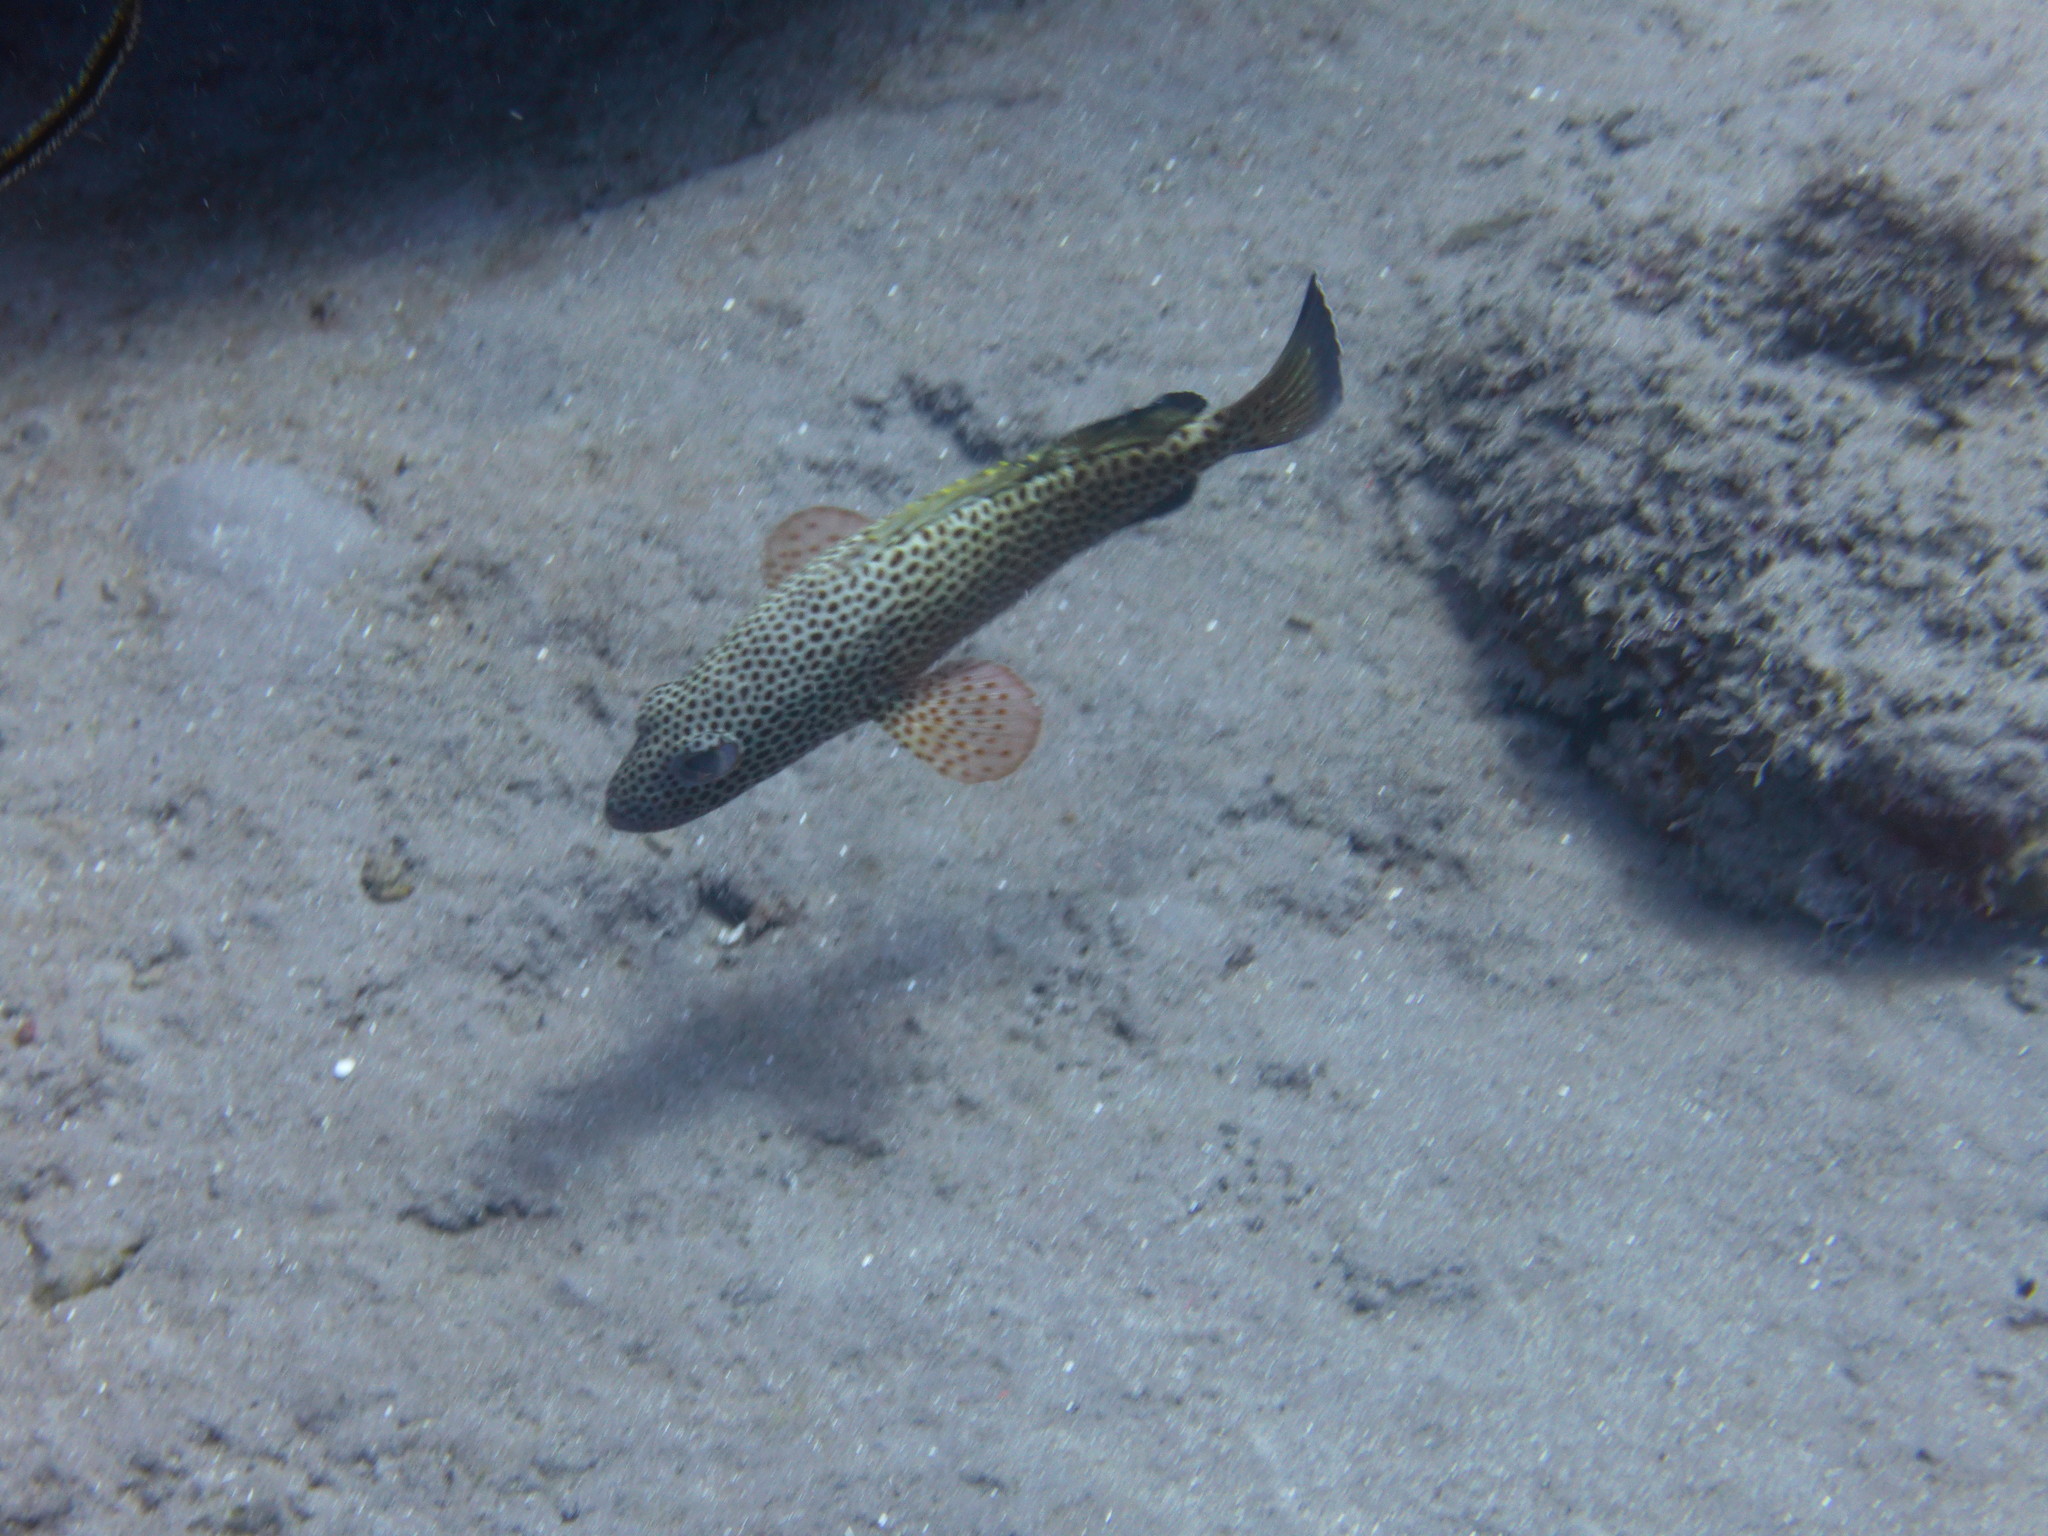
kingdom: Animalia
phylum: Chordata
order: Perciformes
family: Serranidae
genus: Epinephelus
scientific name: Epinephelus guttatus
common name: Red hind
